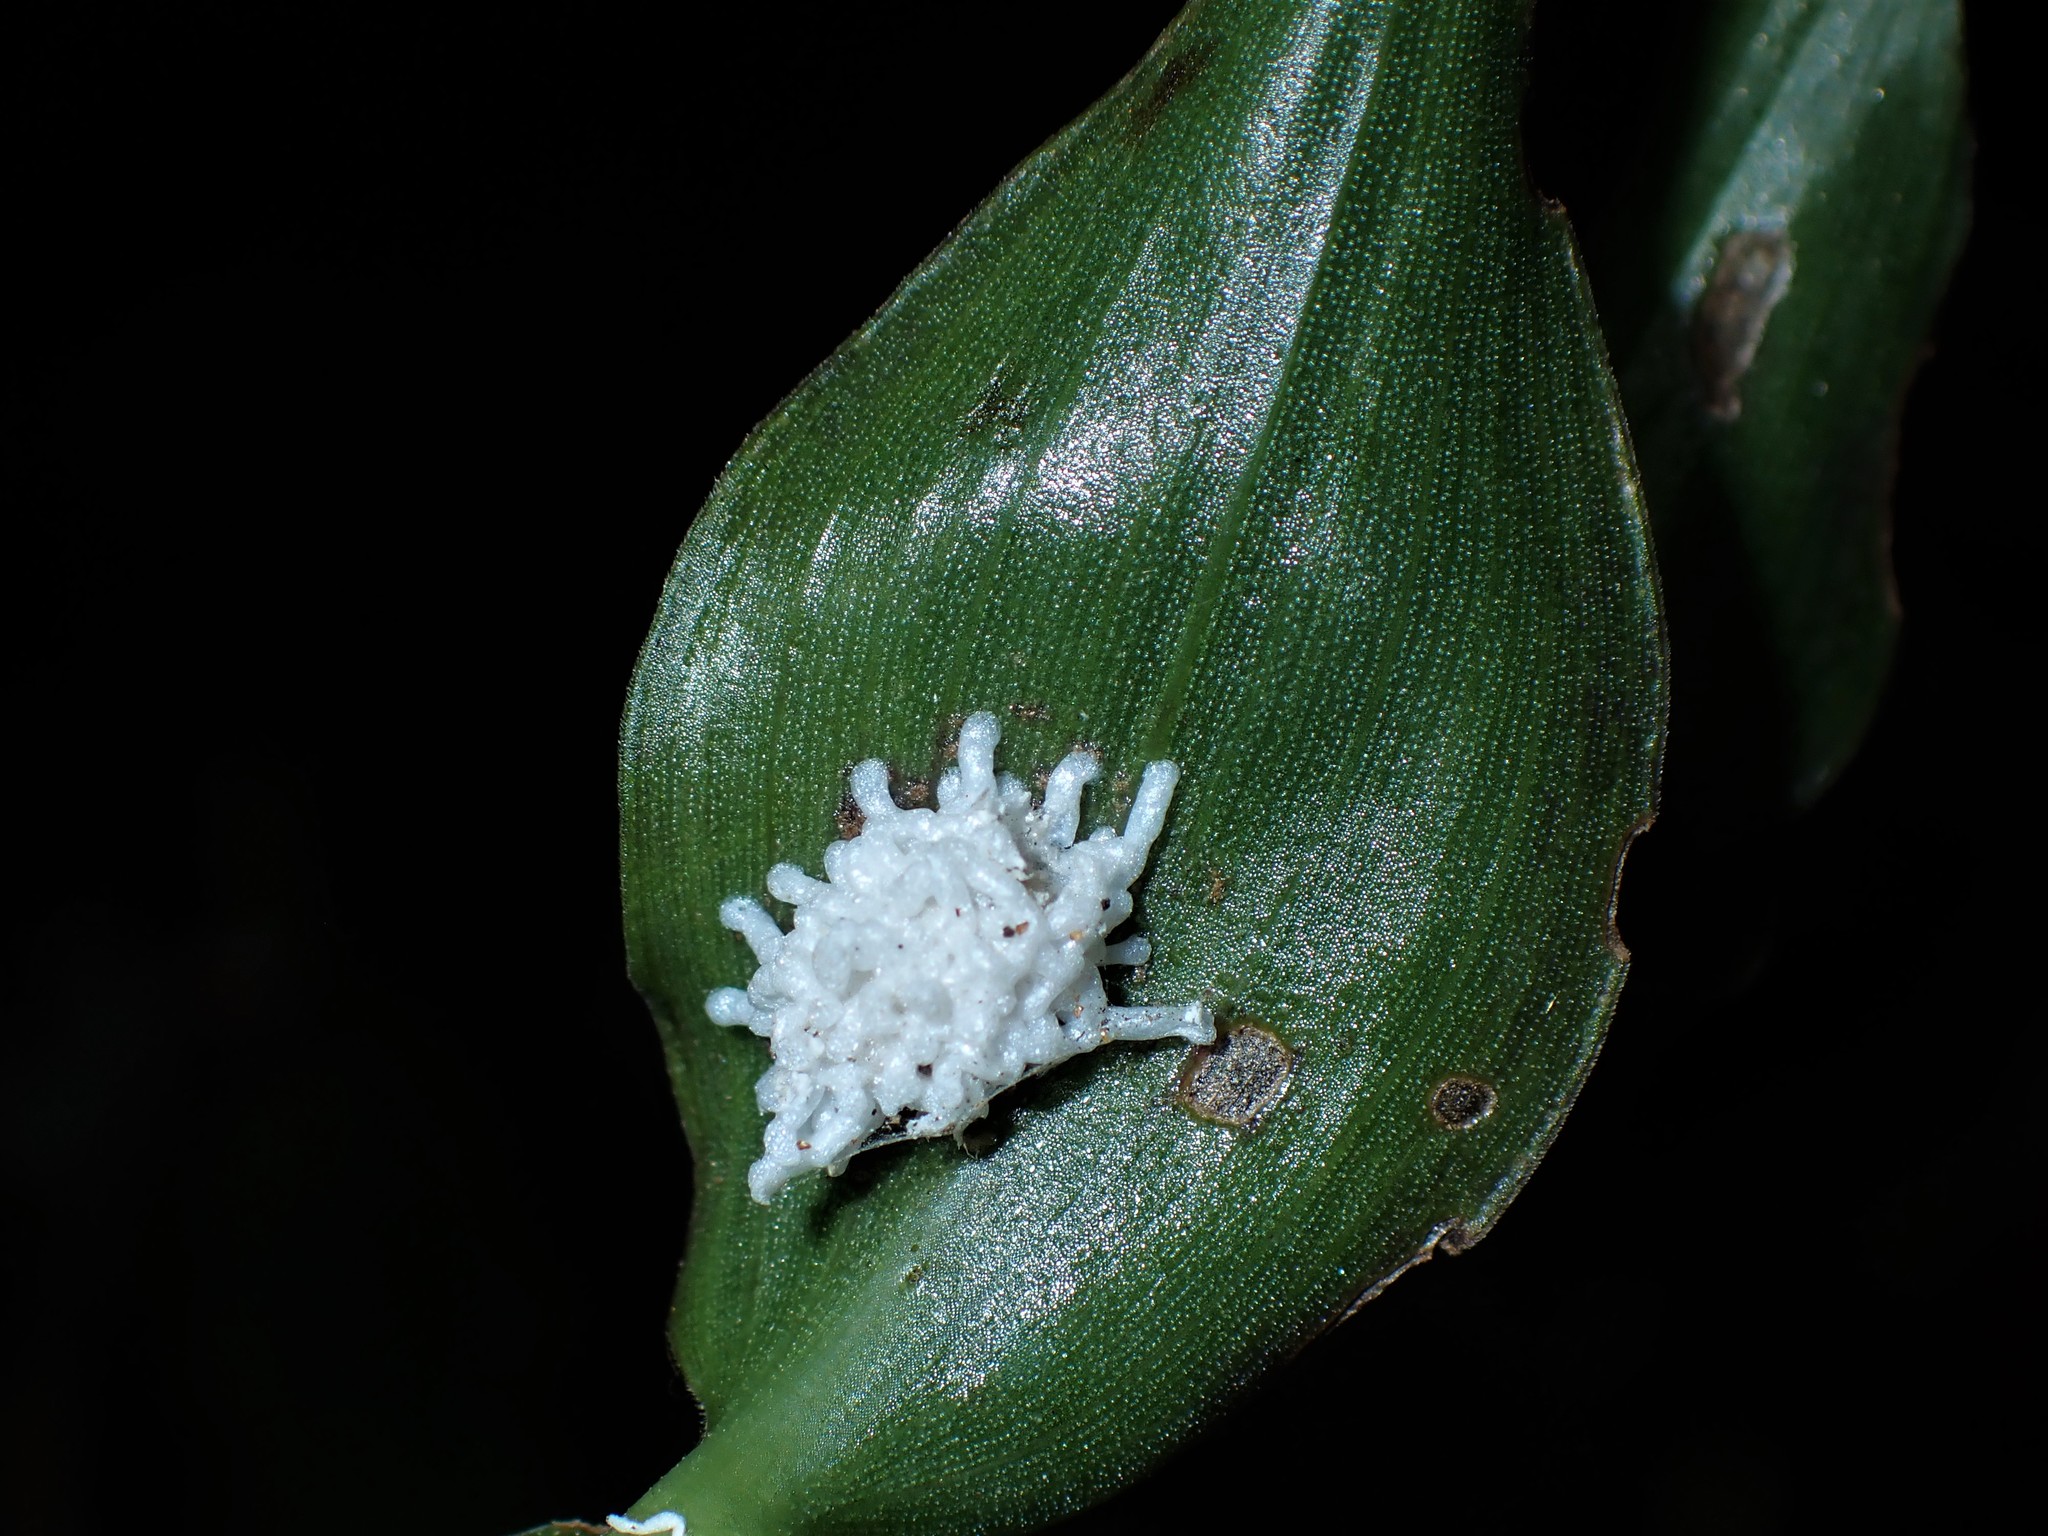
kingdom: Animalia
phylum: Arthropoda
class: Insecta
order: Coleoptera
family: Chrysomelidae
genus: Neolema
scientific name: Neolema ogloblini
